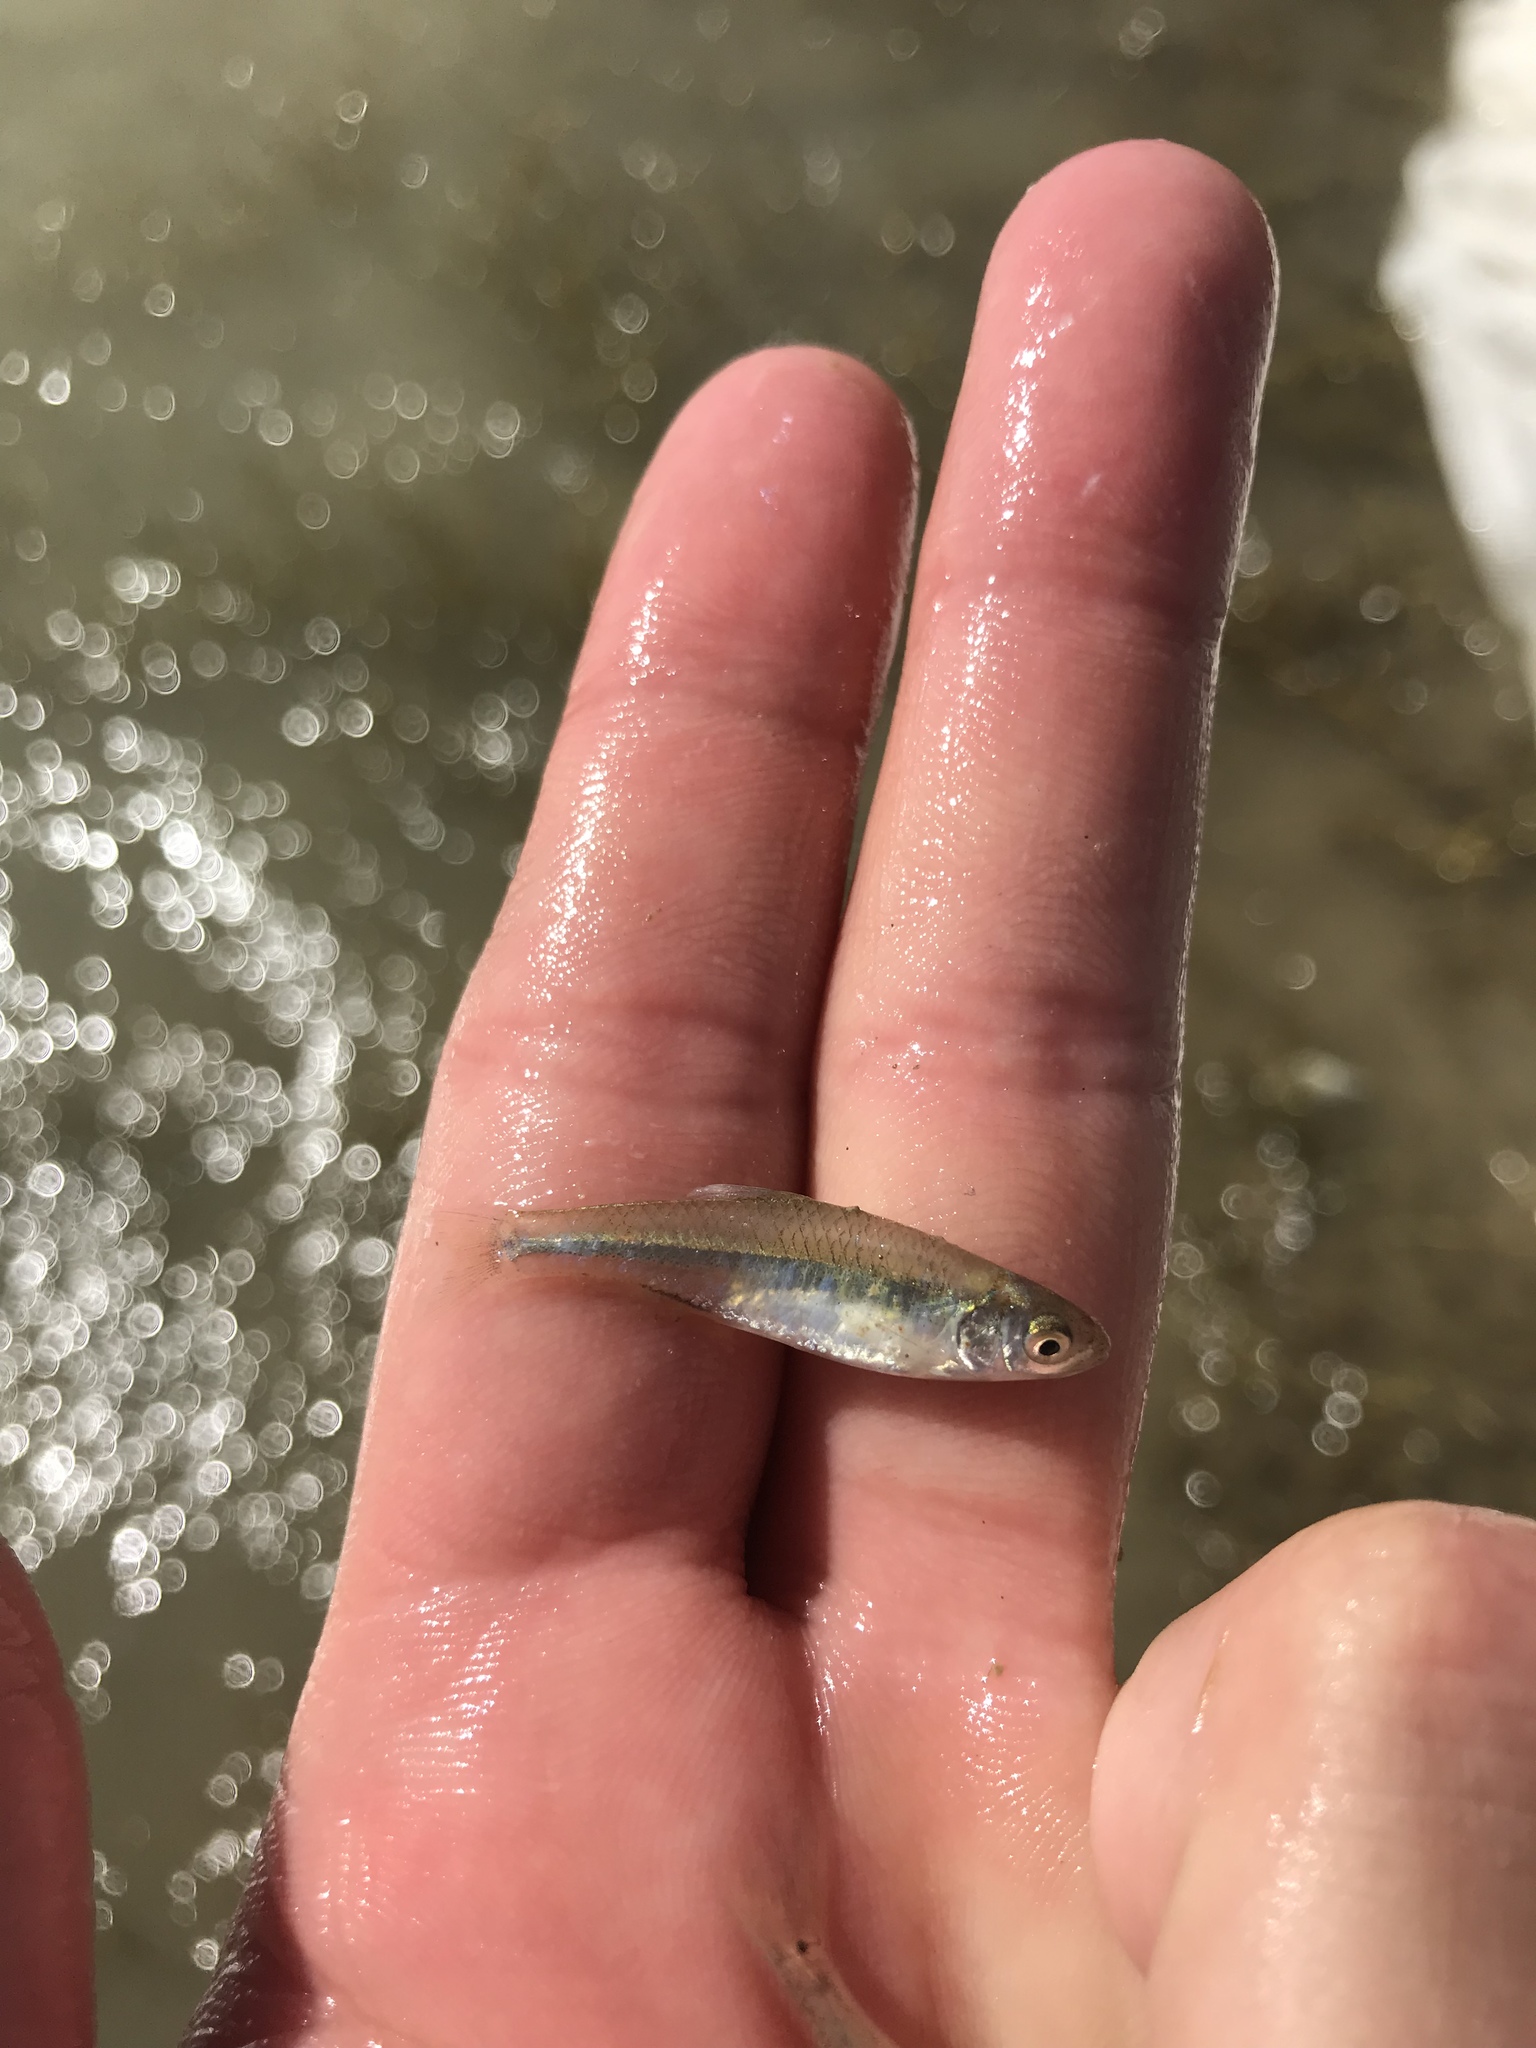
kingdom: Animalia
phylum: Chordata
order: Cypriniformes
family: Cyprinidae
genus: Cyprinella
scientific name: Cyprinella lutrensis
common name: Red shiner
